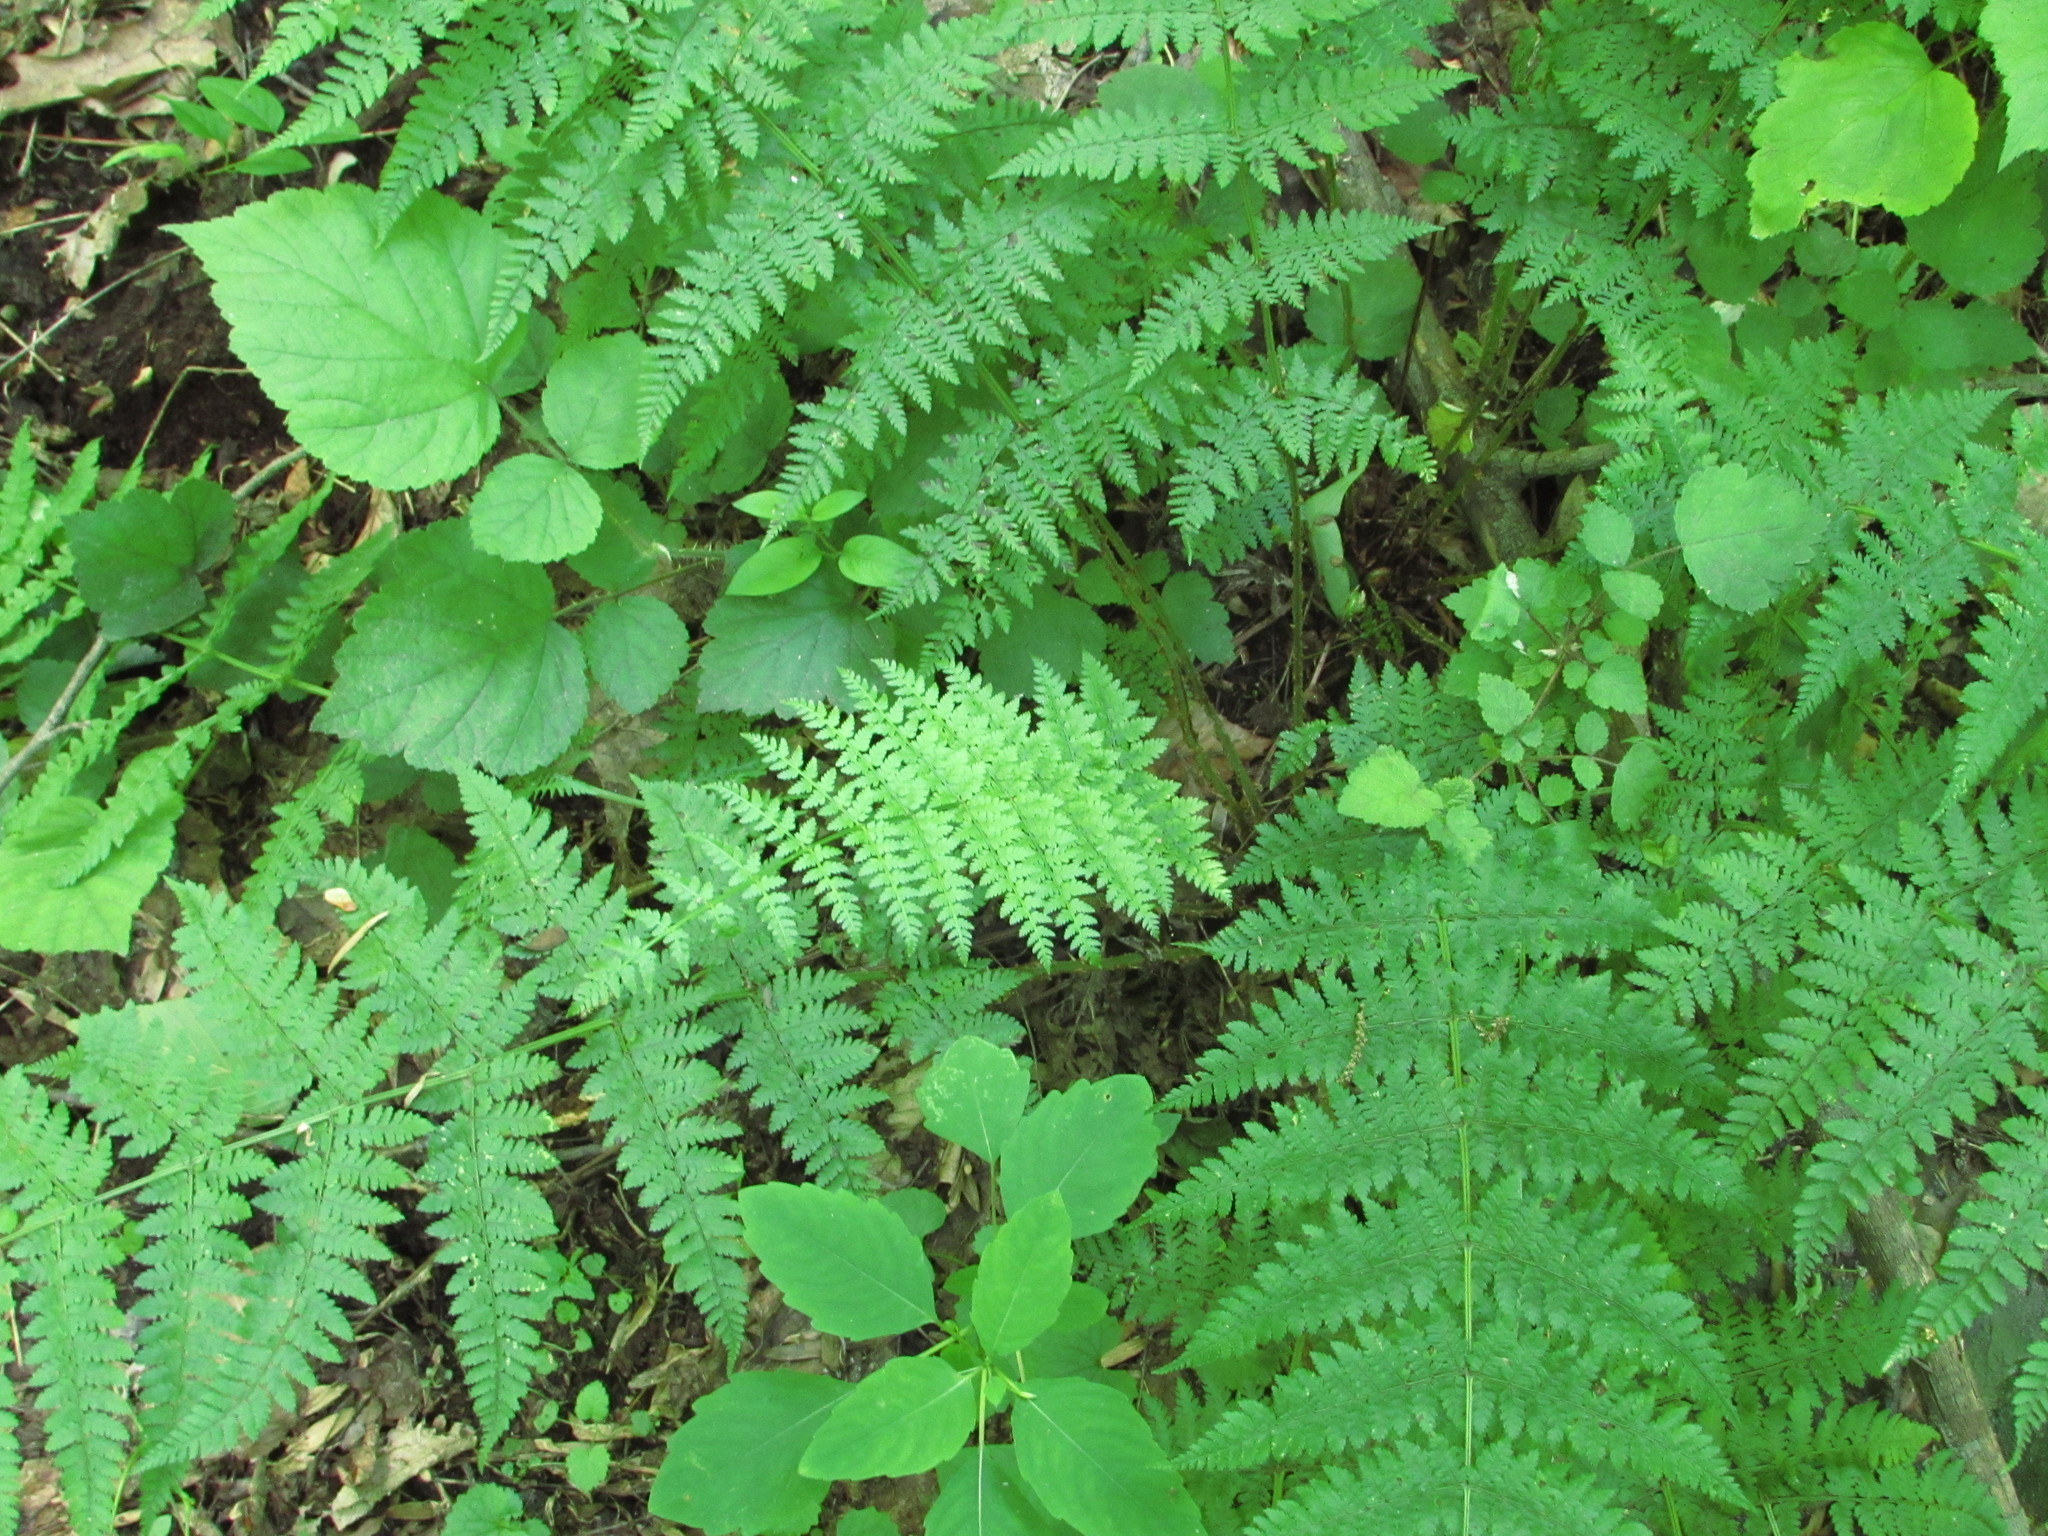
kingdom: Plantae
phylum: Tracheophyta
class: Polypodiopsida
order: Polypodiales
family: Dryopteridaceae
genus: Dryopteris
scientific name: Dryopteris intermedia
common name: Evergreen wood fern
